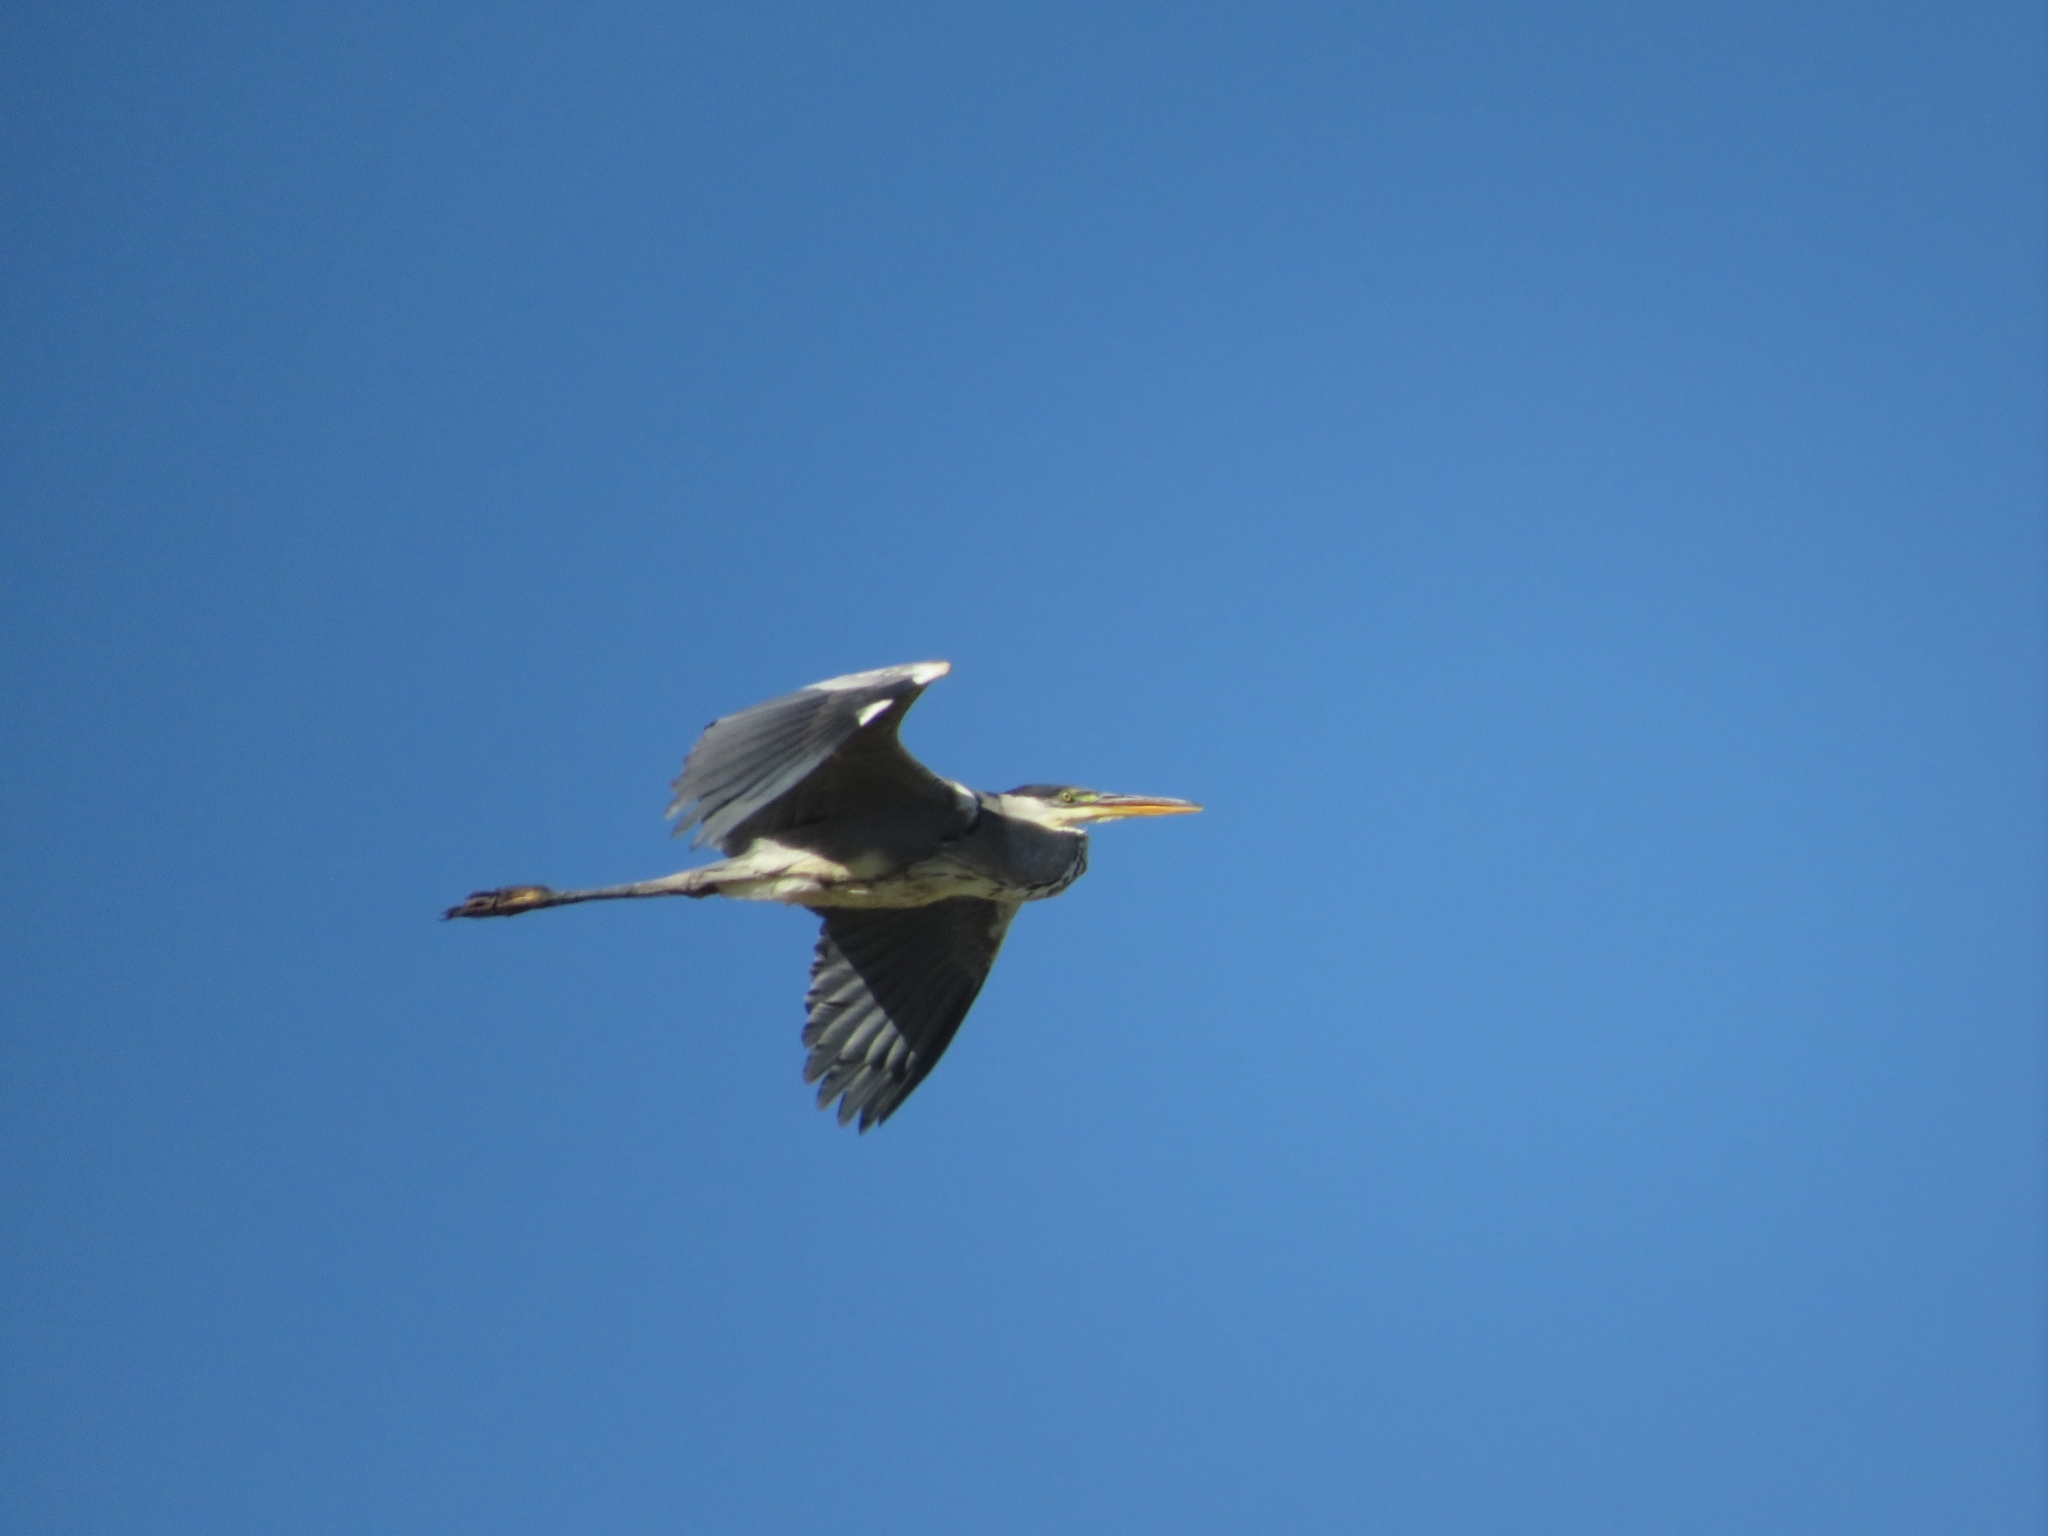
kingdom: Animalia
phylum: Chordata
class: Aves
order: Pelecaniformes
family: Ardeidae
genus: Ardea
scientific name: Ardea cocoi
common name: Cocoi heron
